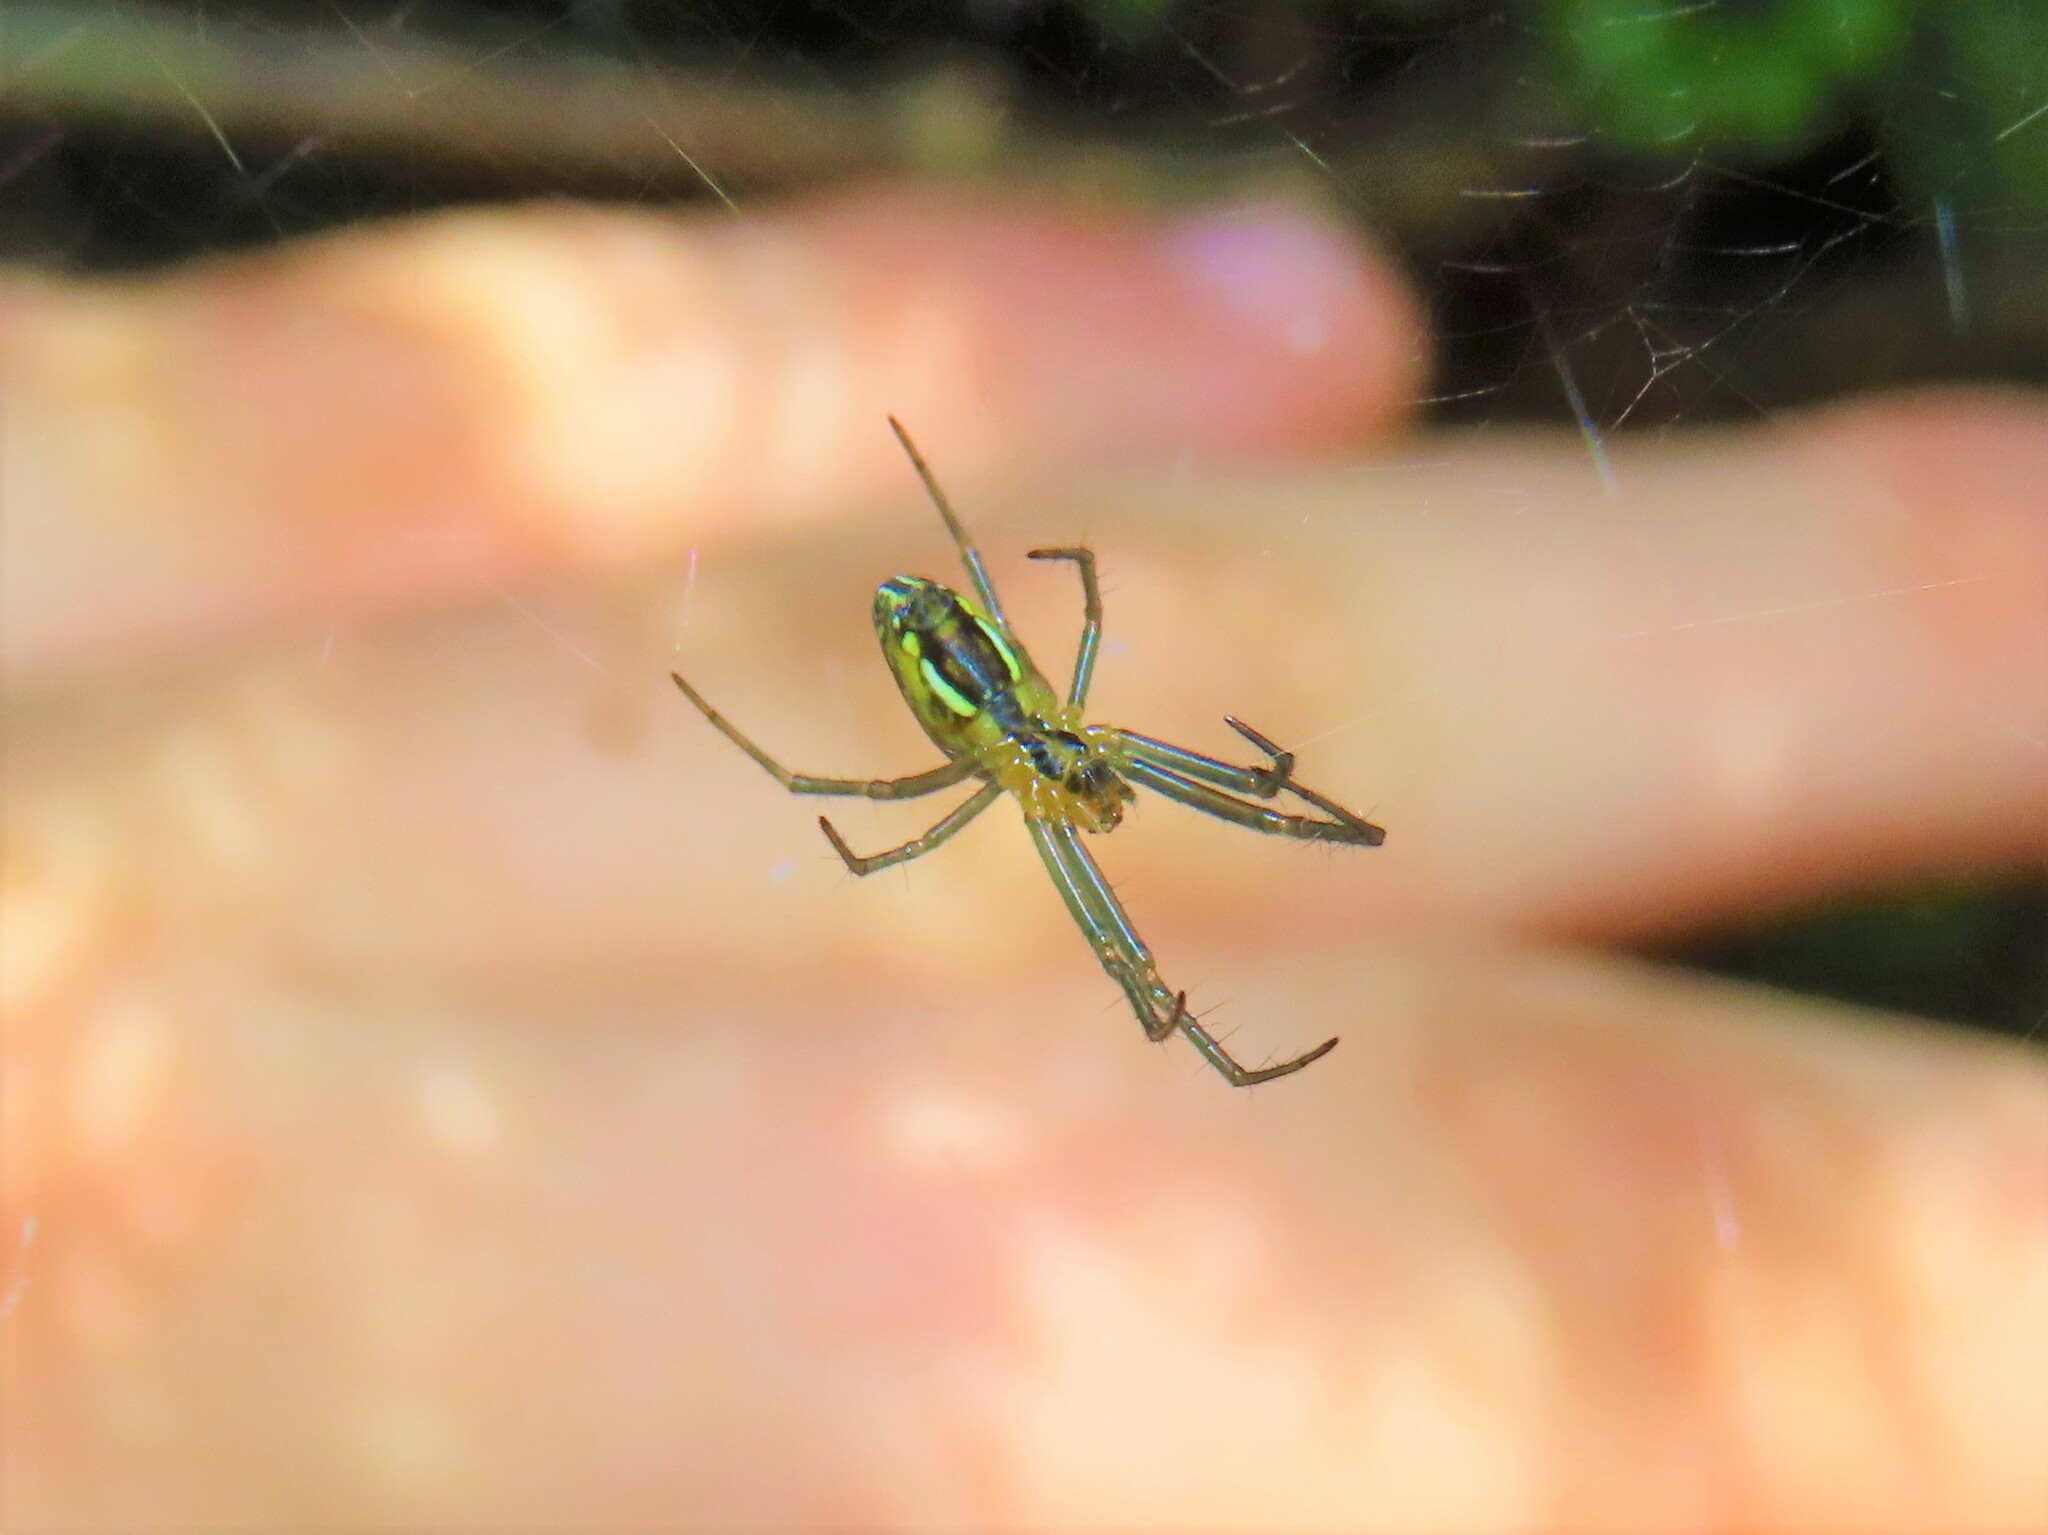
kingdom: Animalia
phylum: Arthropoda
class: Arachnida
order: Araneae
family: Araneidae
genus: Mecynogea
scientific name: Mecynogea lemniscata
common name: Orb weavers
